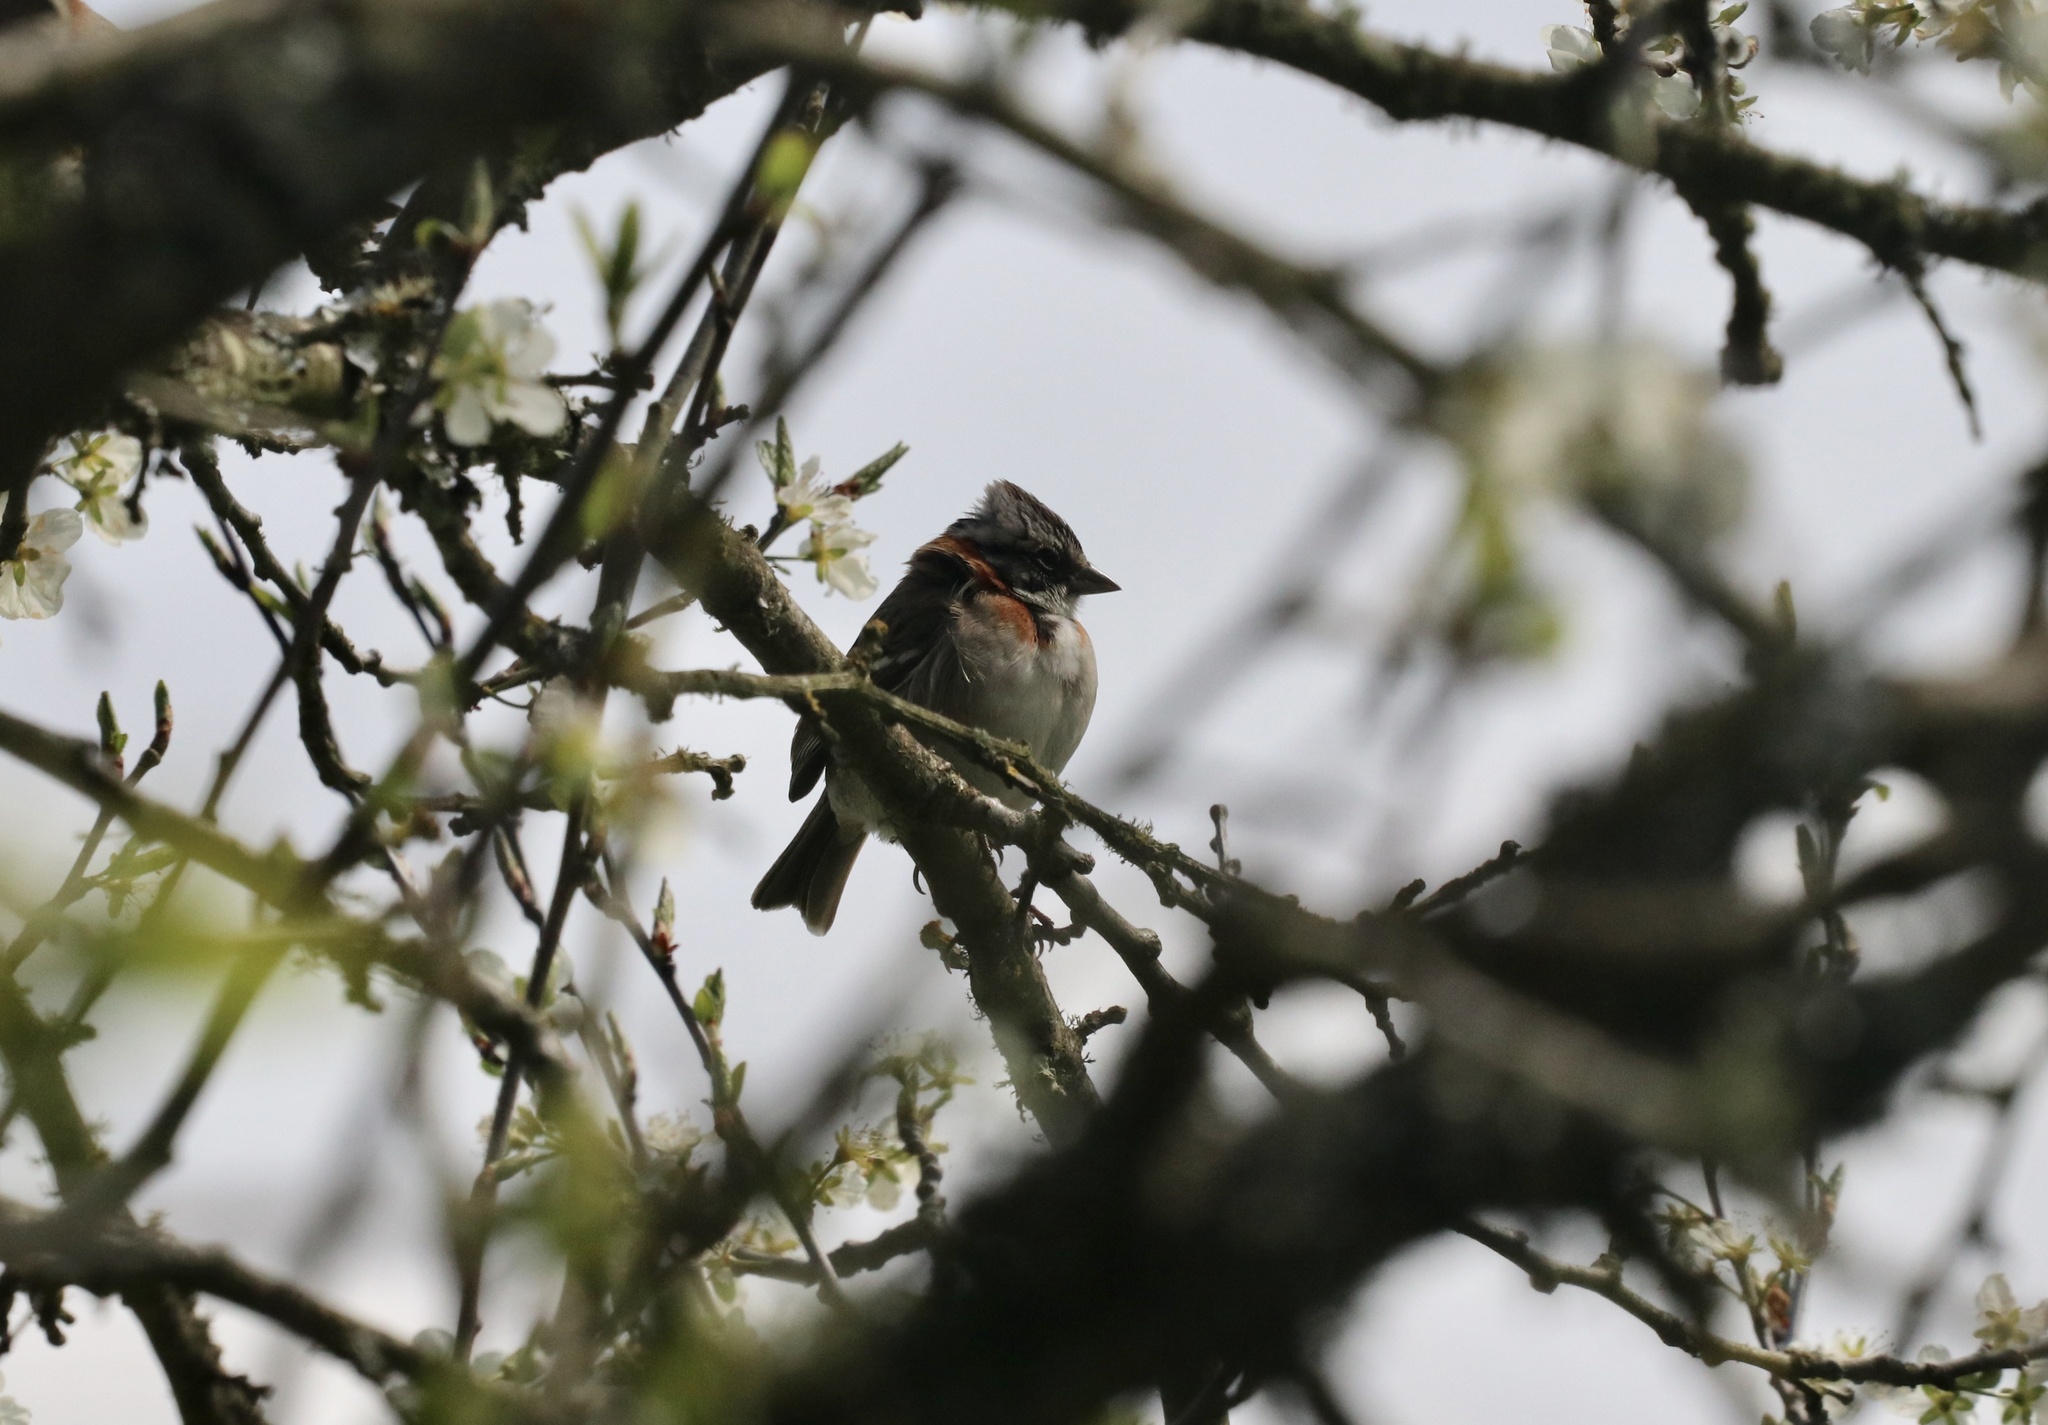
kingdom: Animalia
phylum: Chordata
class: Aves
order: Passeriformes
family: Passerellidae
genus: Zonotrichia
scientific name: Zonotrichia capensis
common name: Rufous-collared sparrow
